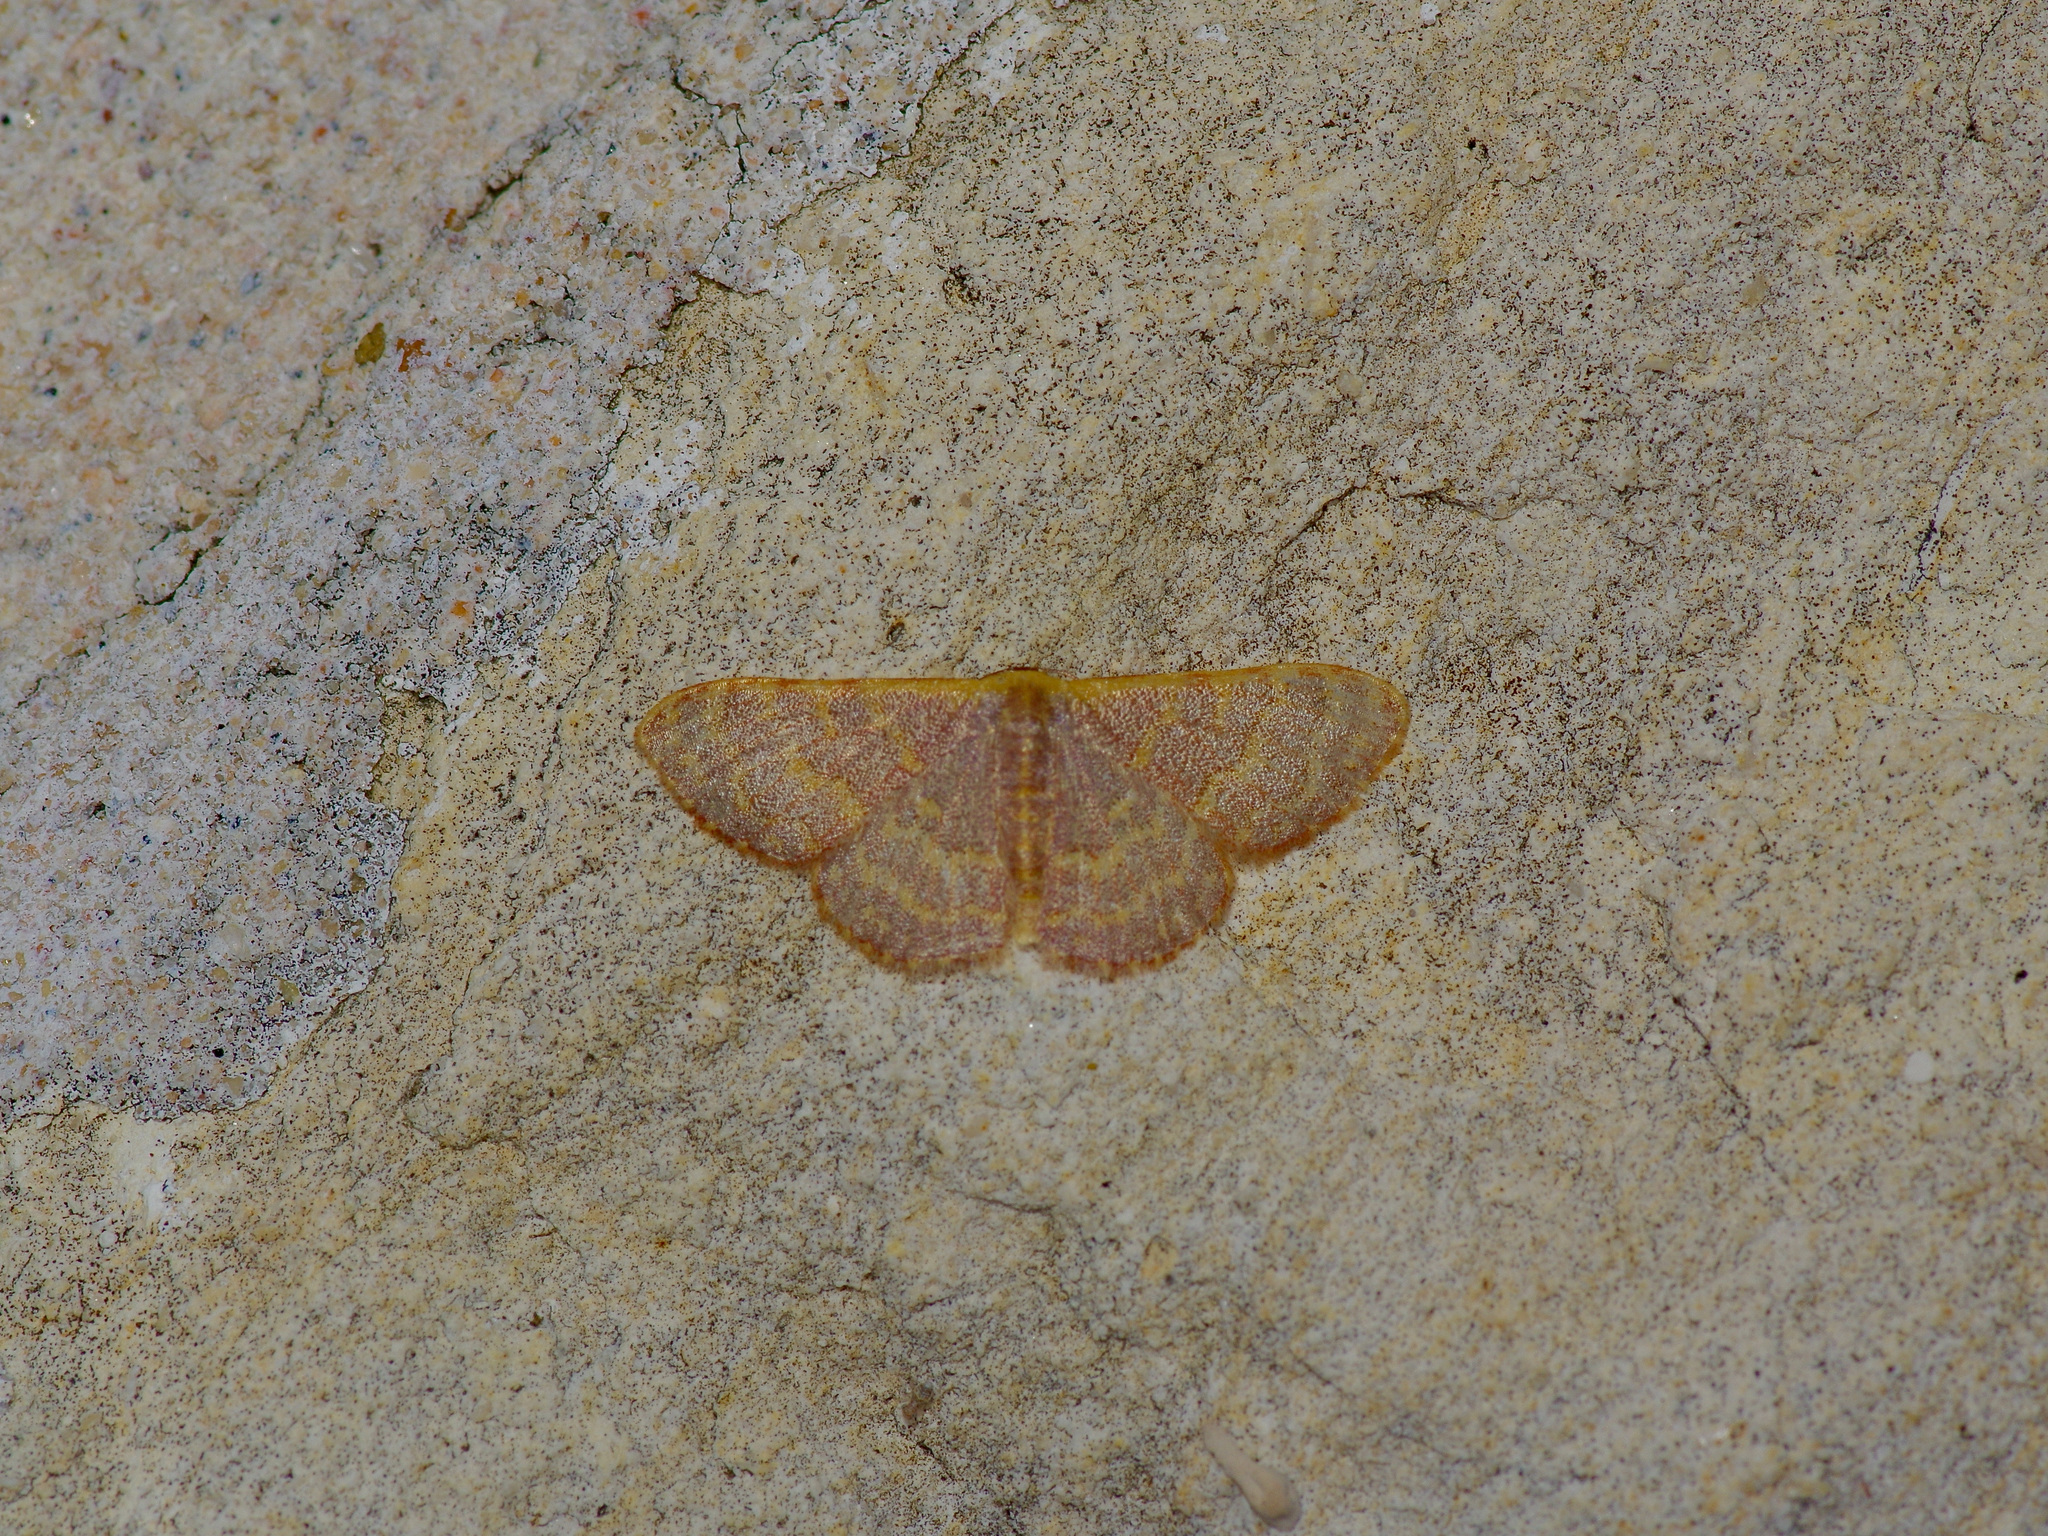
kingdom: Animalia
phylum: Arthropoda
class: Insecta
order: Lepidoptera
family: Geometridae
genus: Leptostales
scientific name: Leptostales pannaria
